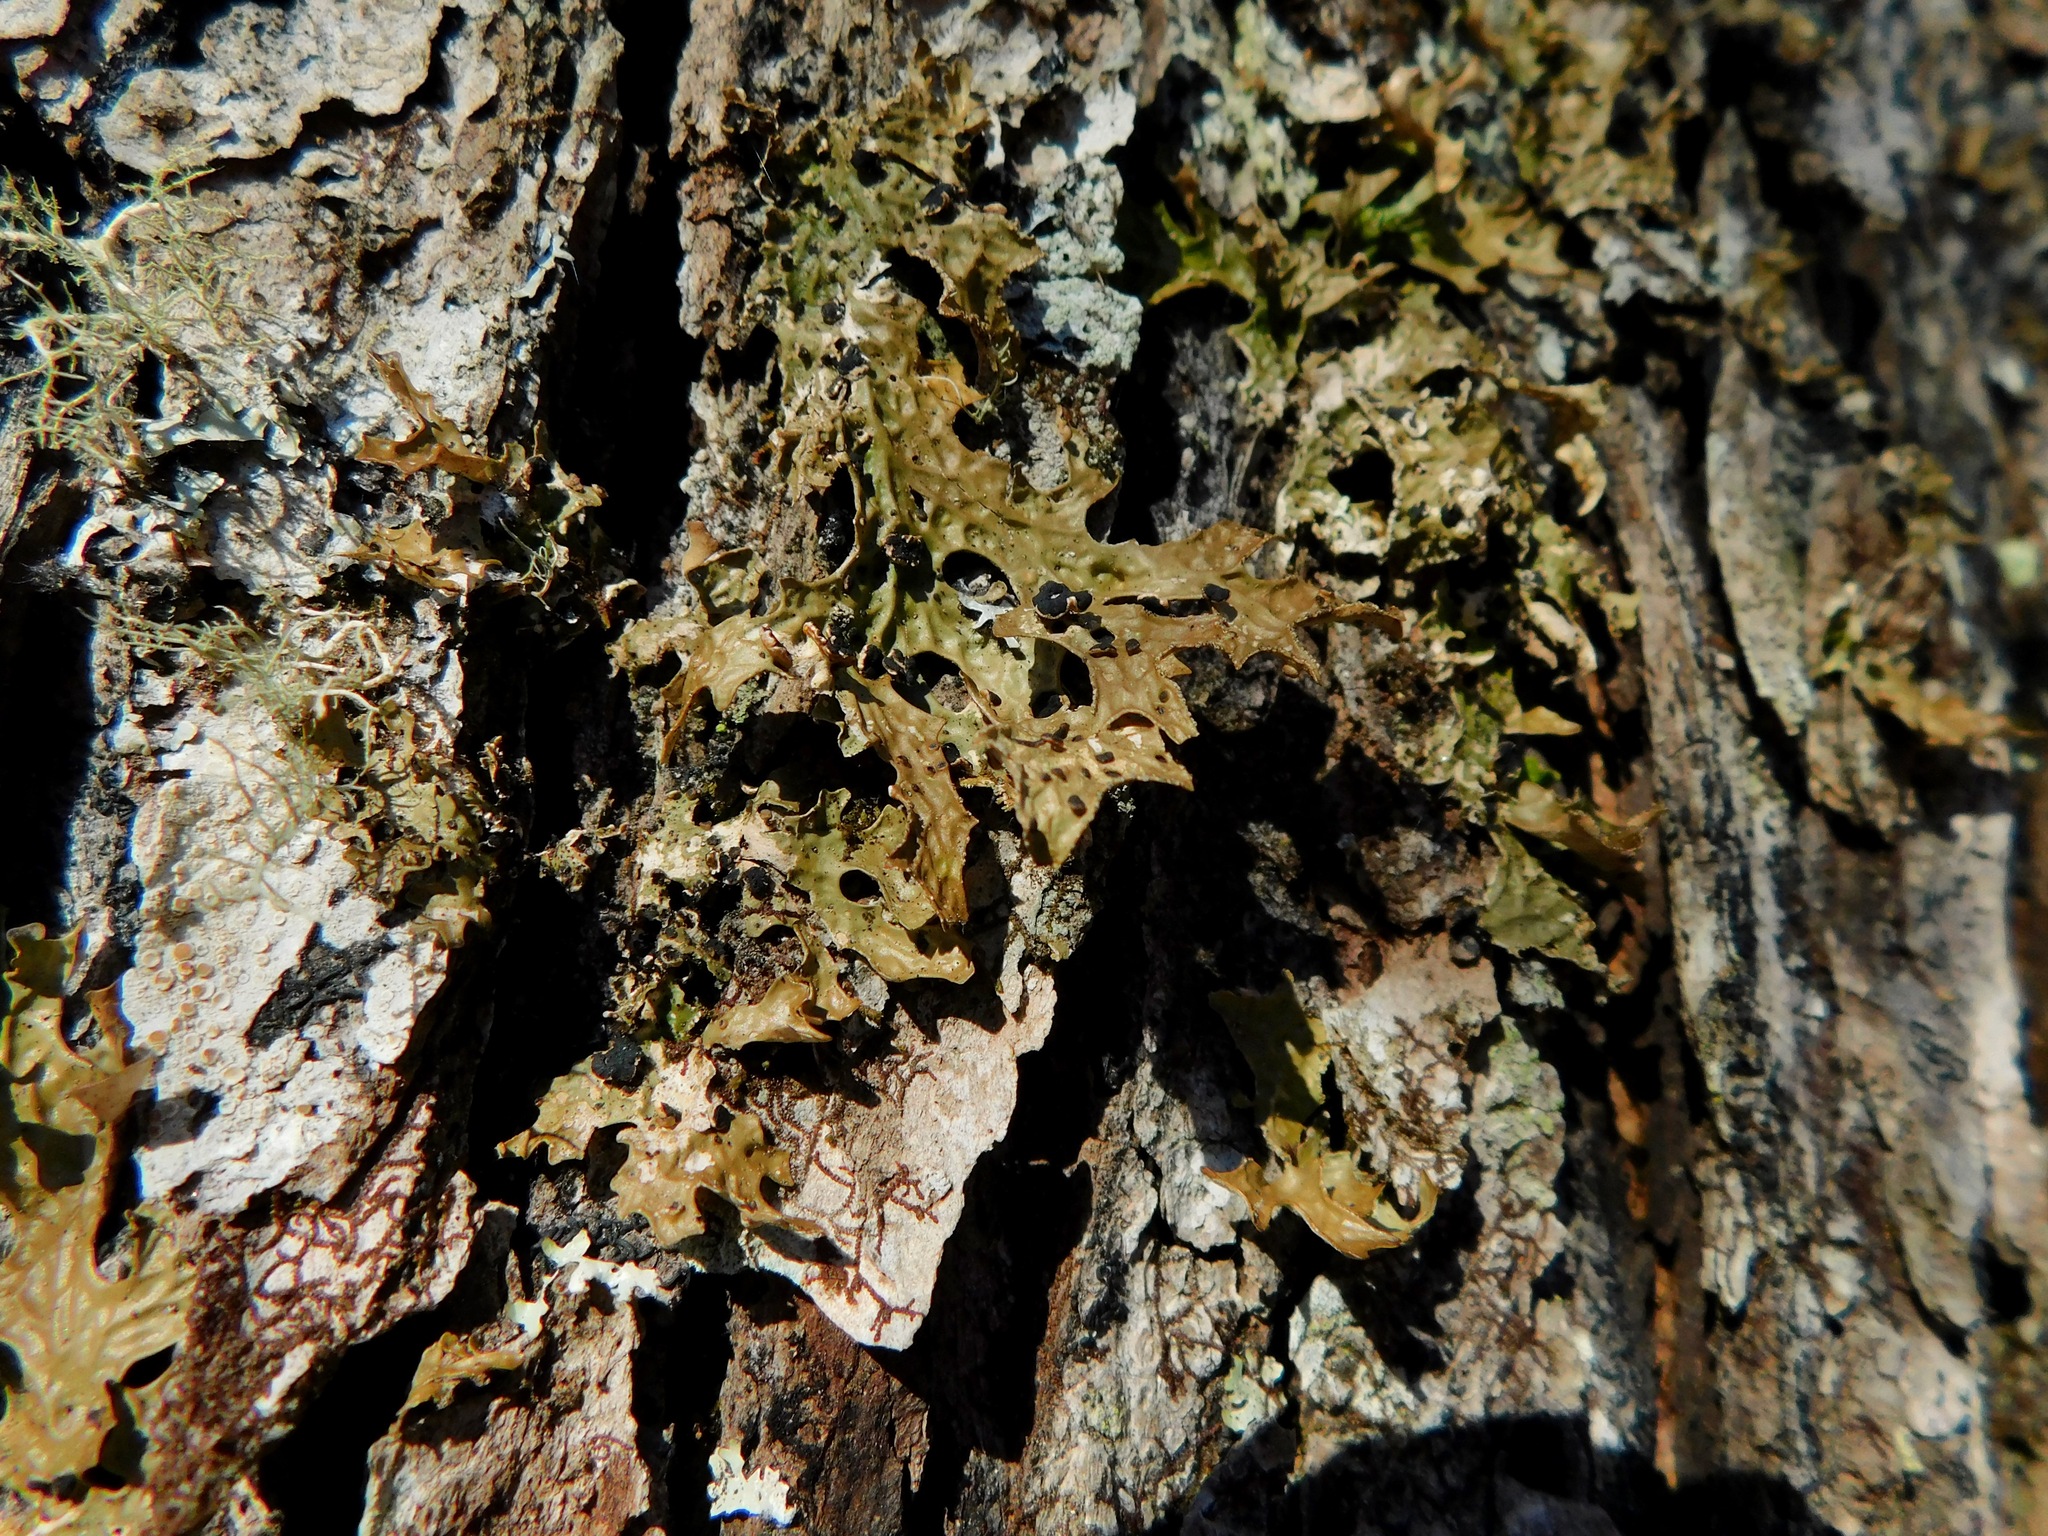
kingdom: Fungi
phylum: Ascomycota
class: Arthoniomycetes
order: Arthoniales
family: Lecanographaceae
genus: Plectocarpon
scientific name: Plectocarpon lichenum
